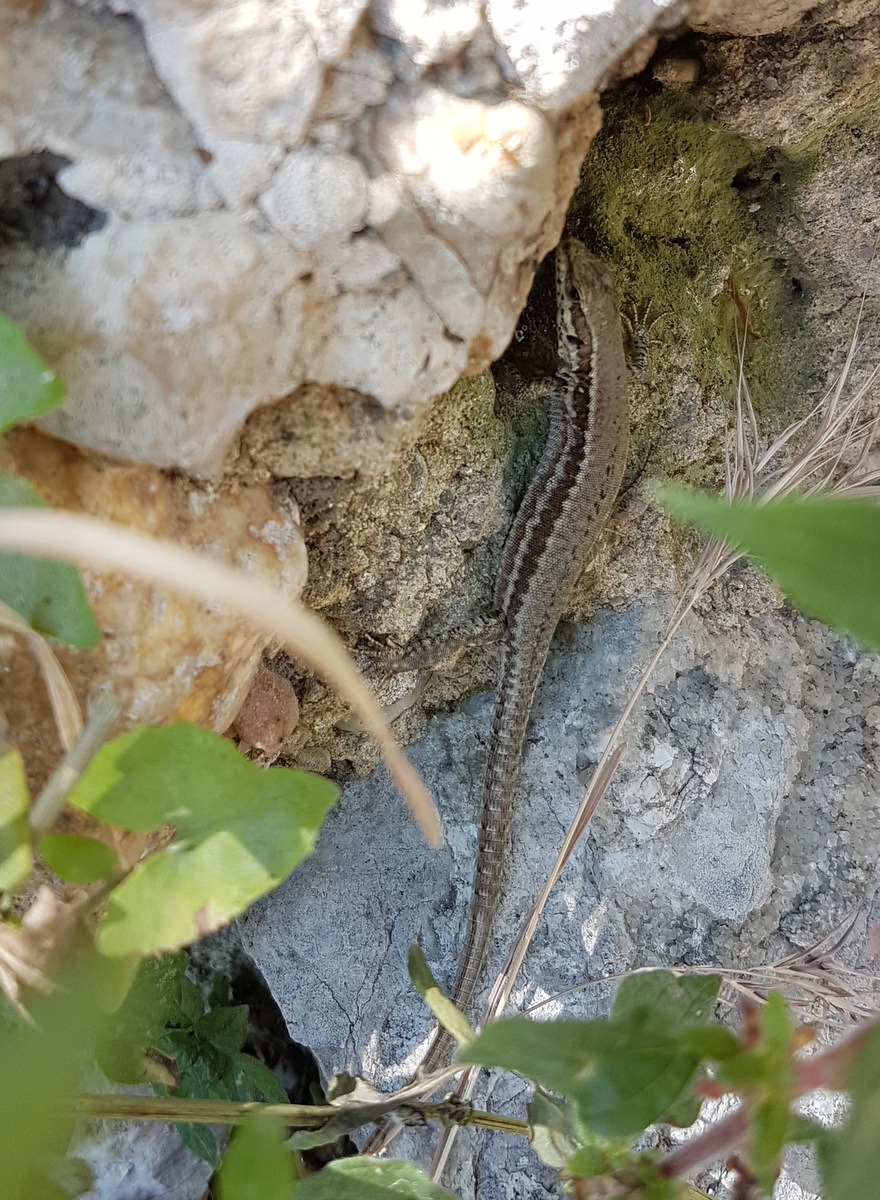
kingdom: Animalia
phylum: Chordata
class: Squamata
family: Lacertidae
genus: Podarcis
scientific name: Podarcis muralis
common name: Common wall lizard
